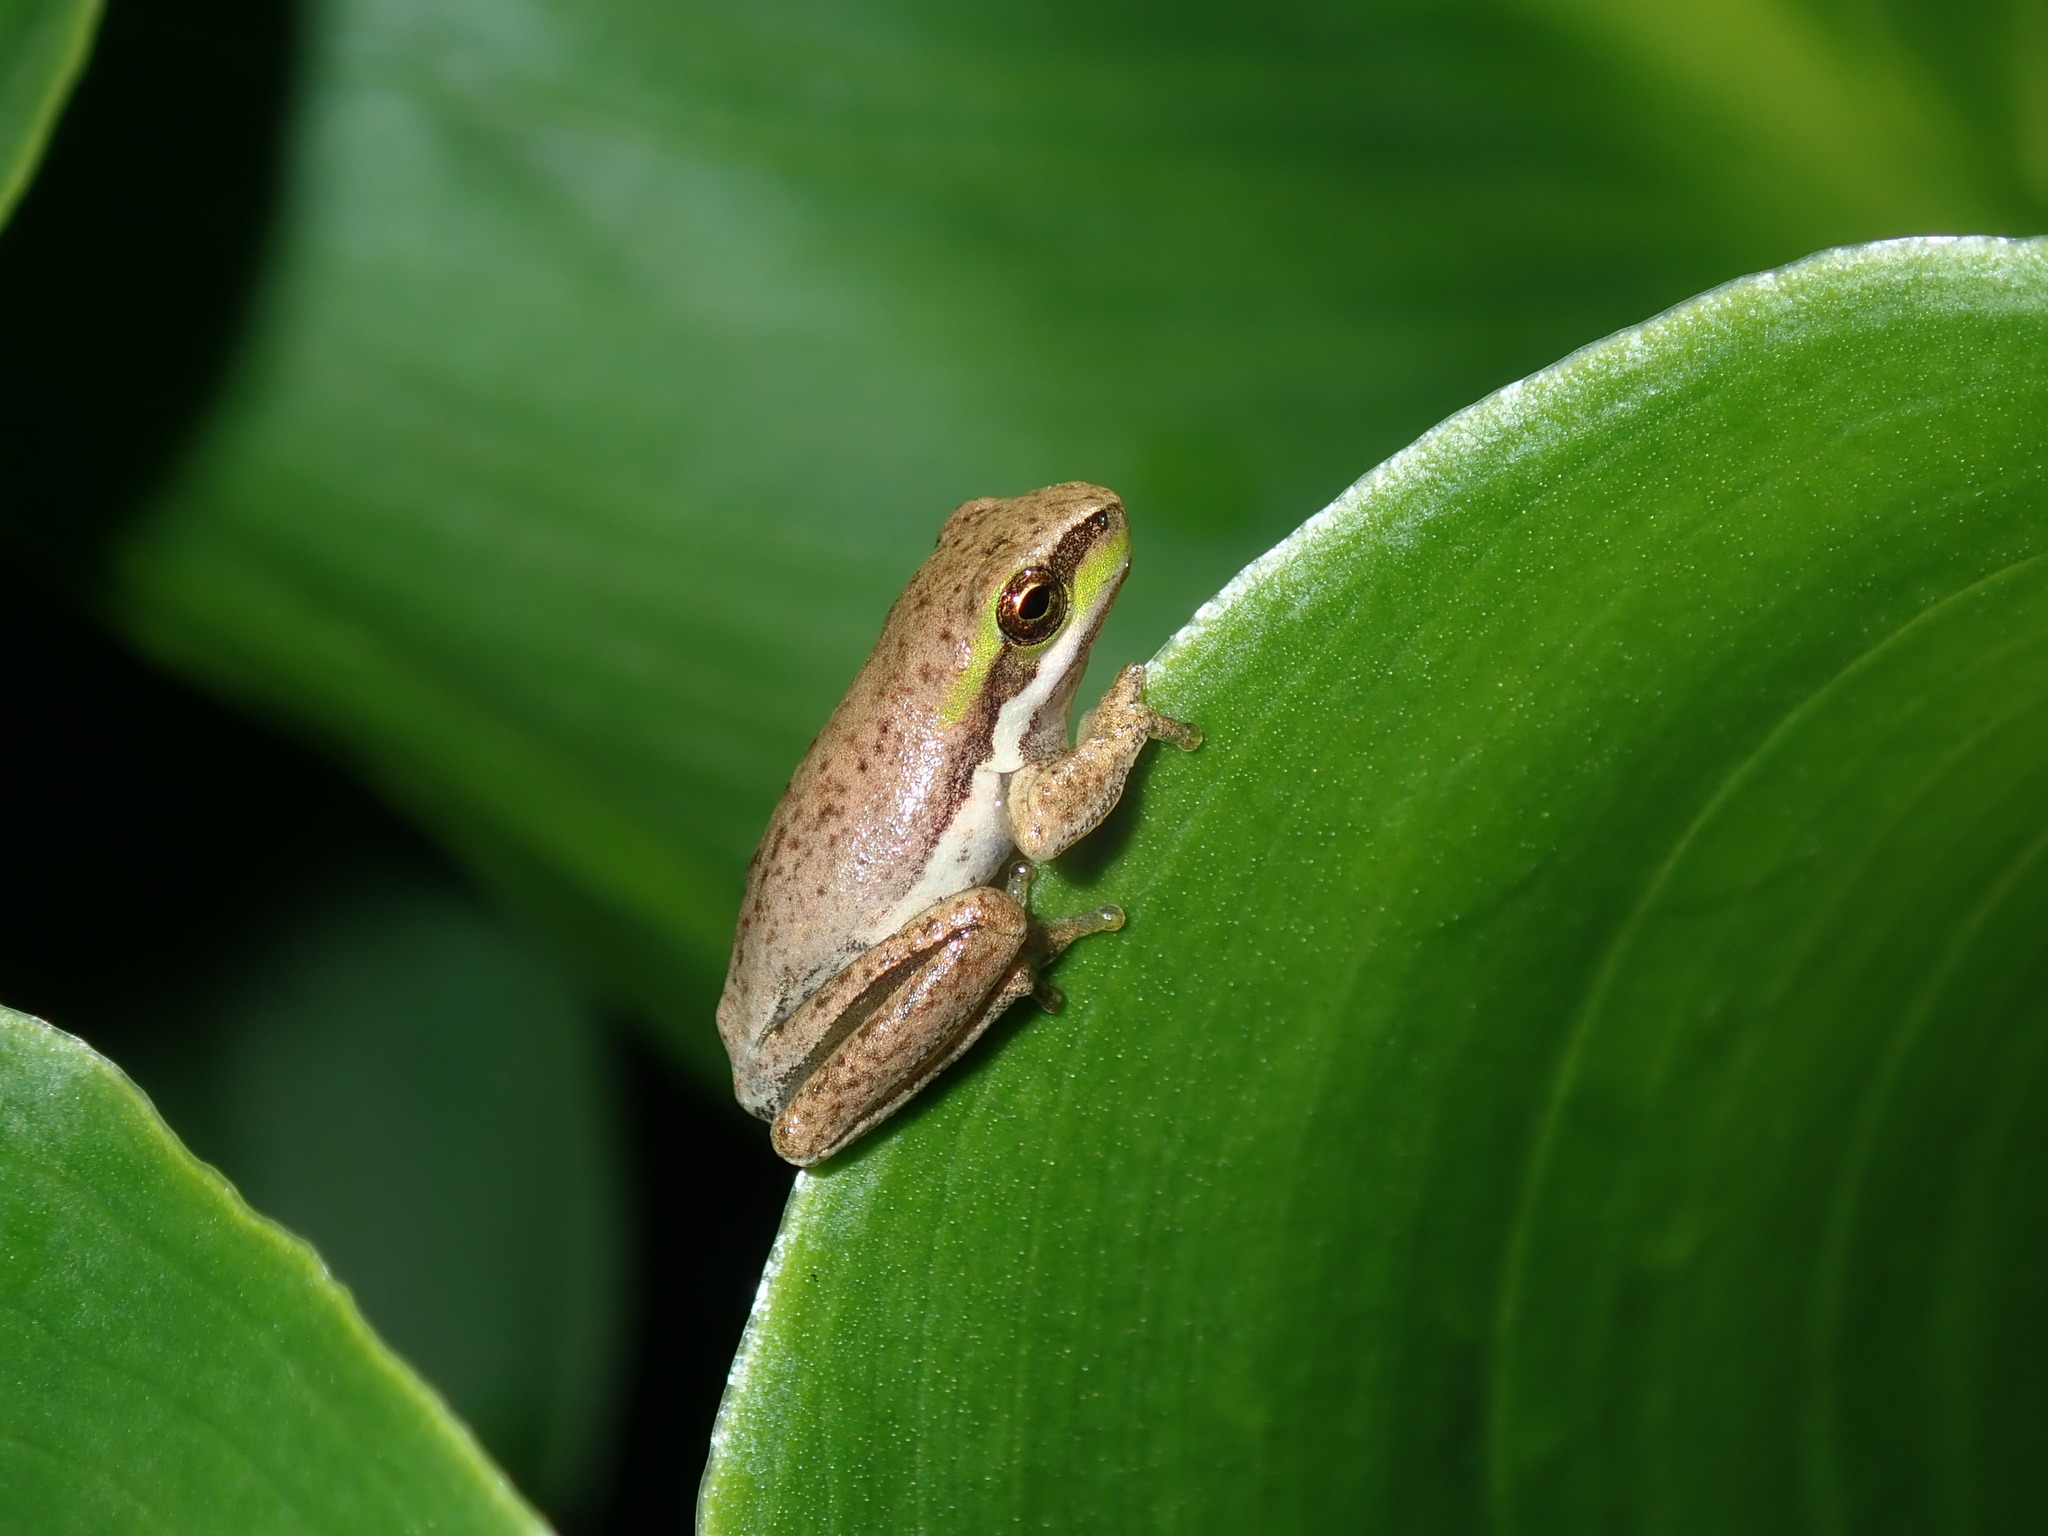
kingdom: Animalia
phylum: Chordata
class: Amphibia
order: Anura
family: Pelodryadidae
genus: Litoria
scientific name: Litoria fallax
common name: Eastern dwarf treefrog
